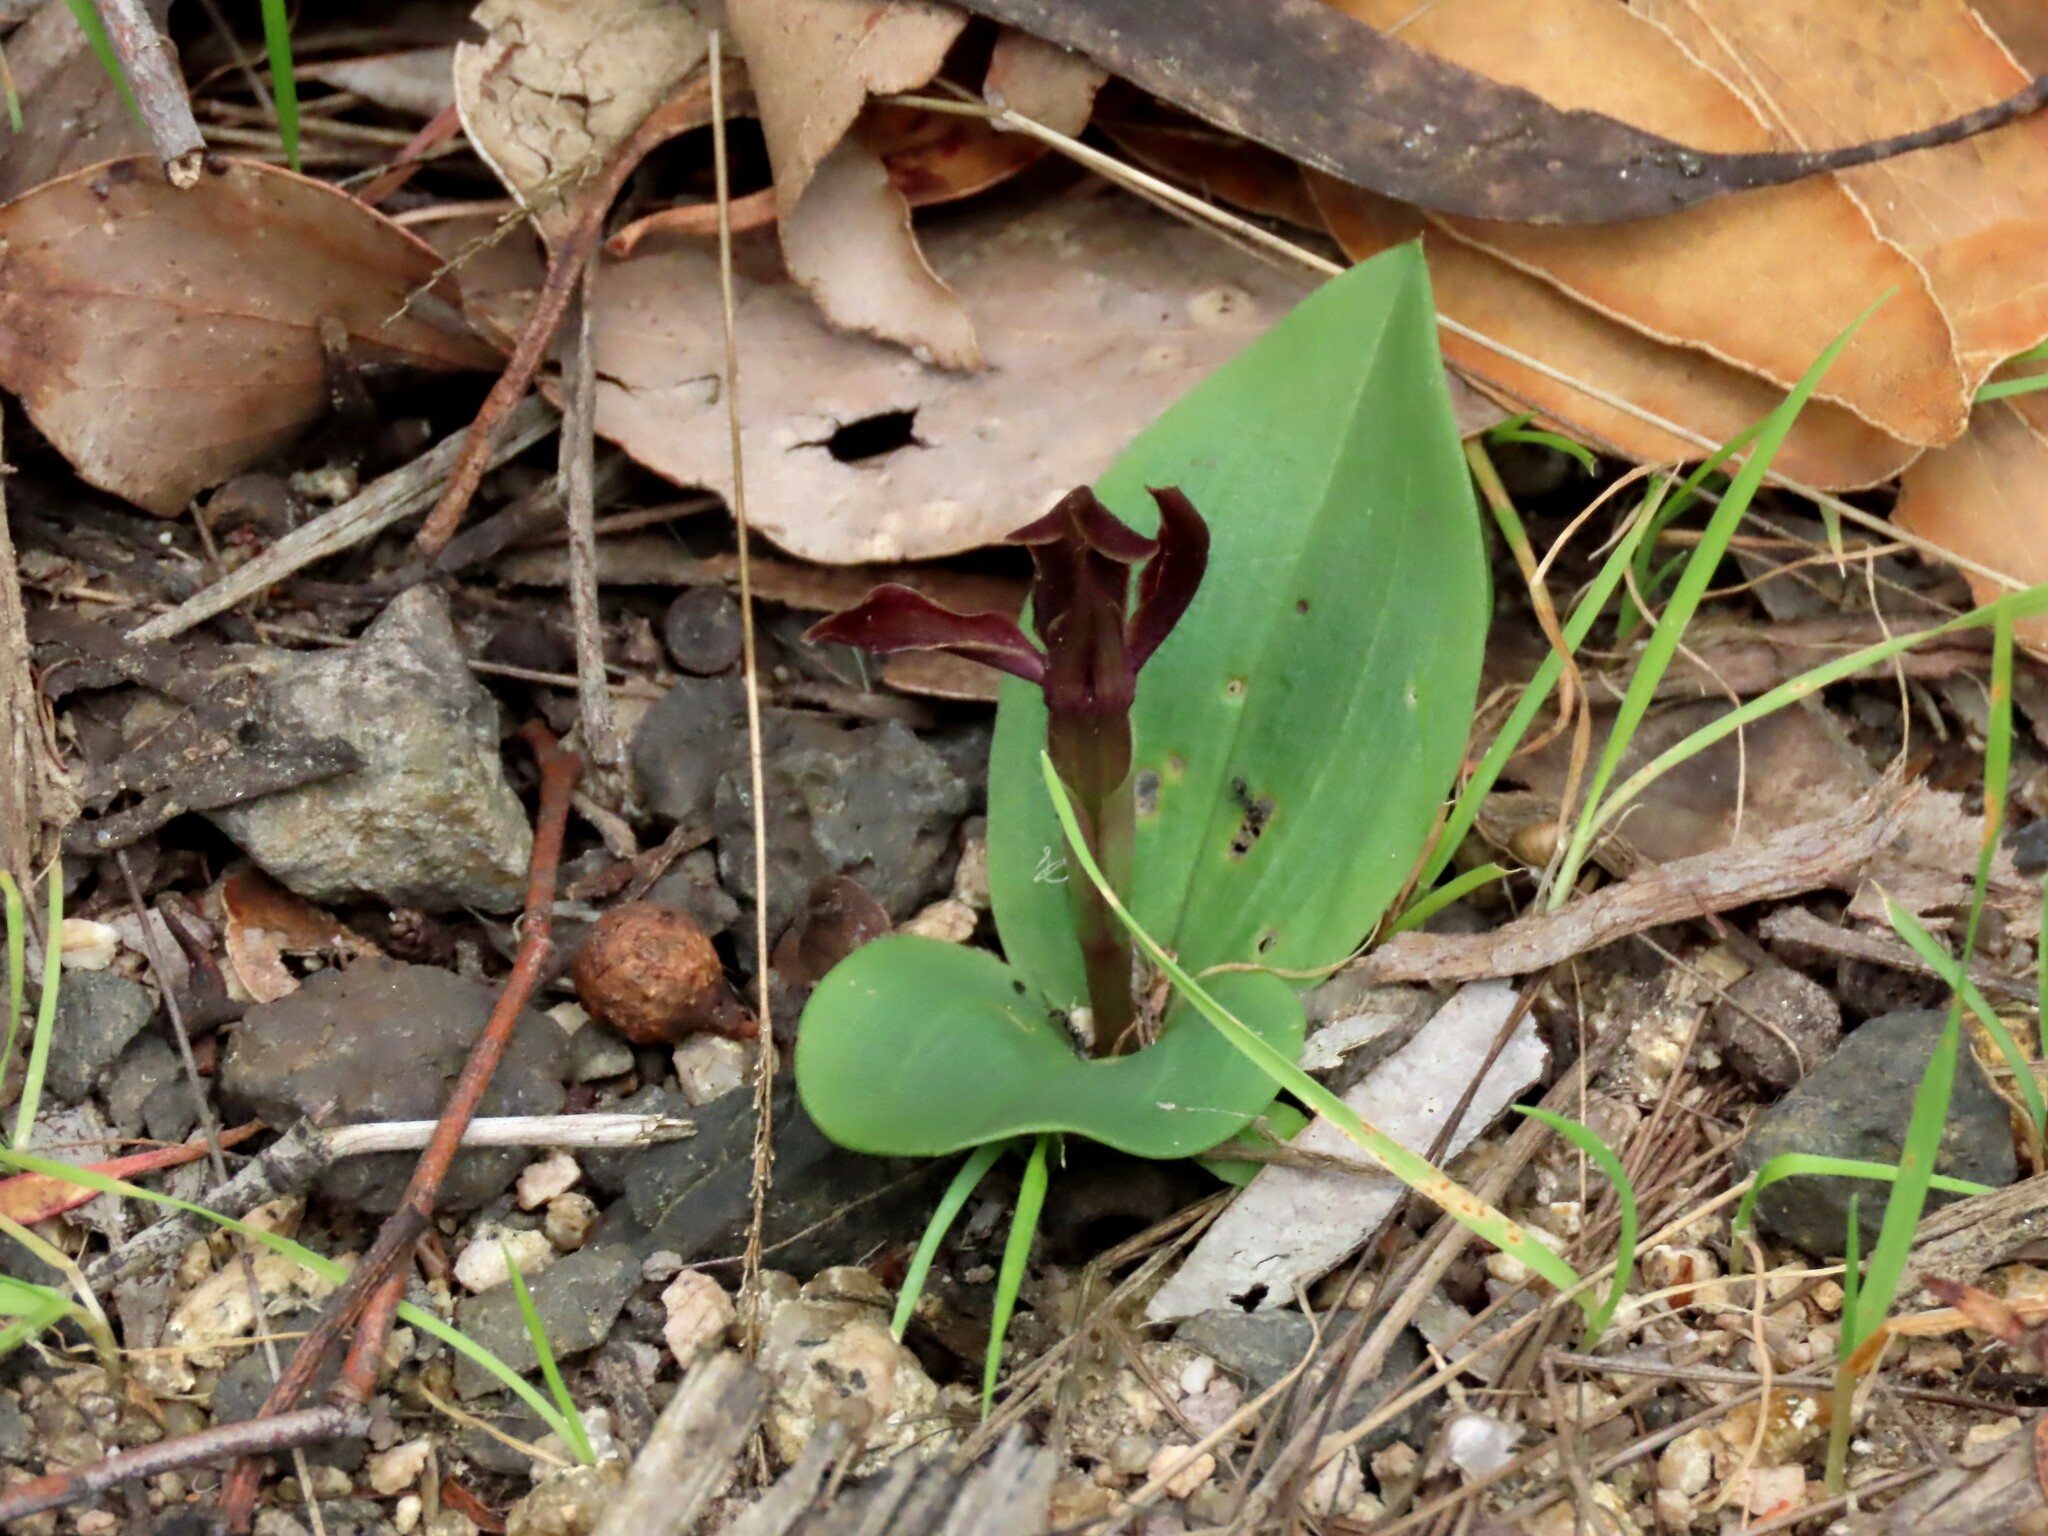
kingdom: Plantae
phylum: Tracheophyta
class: Liliopsida
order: Asparagales
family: Orchidaceae
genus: Chiloglottis
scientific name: Chiloglottis valida
